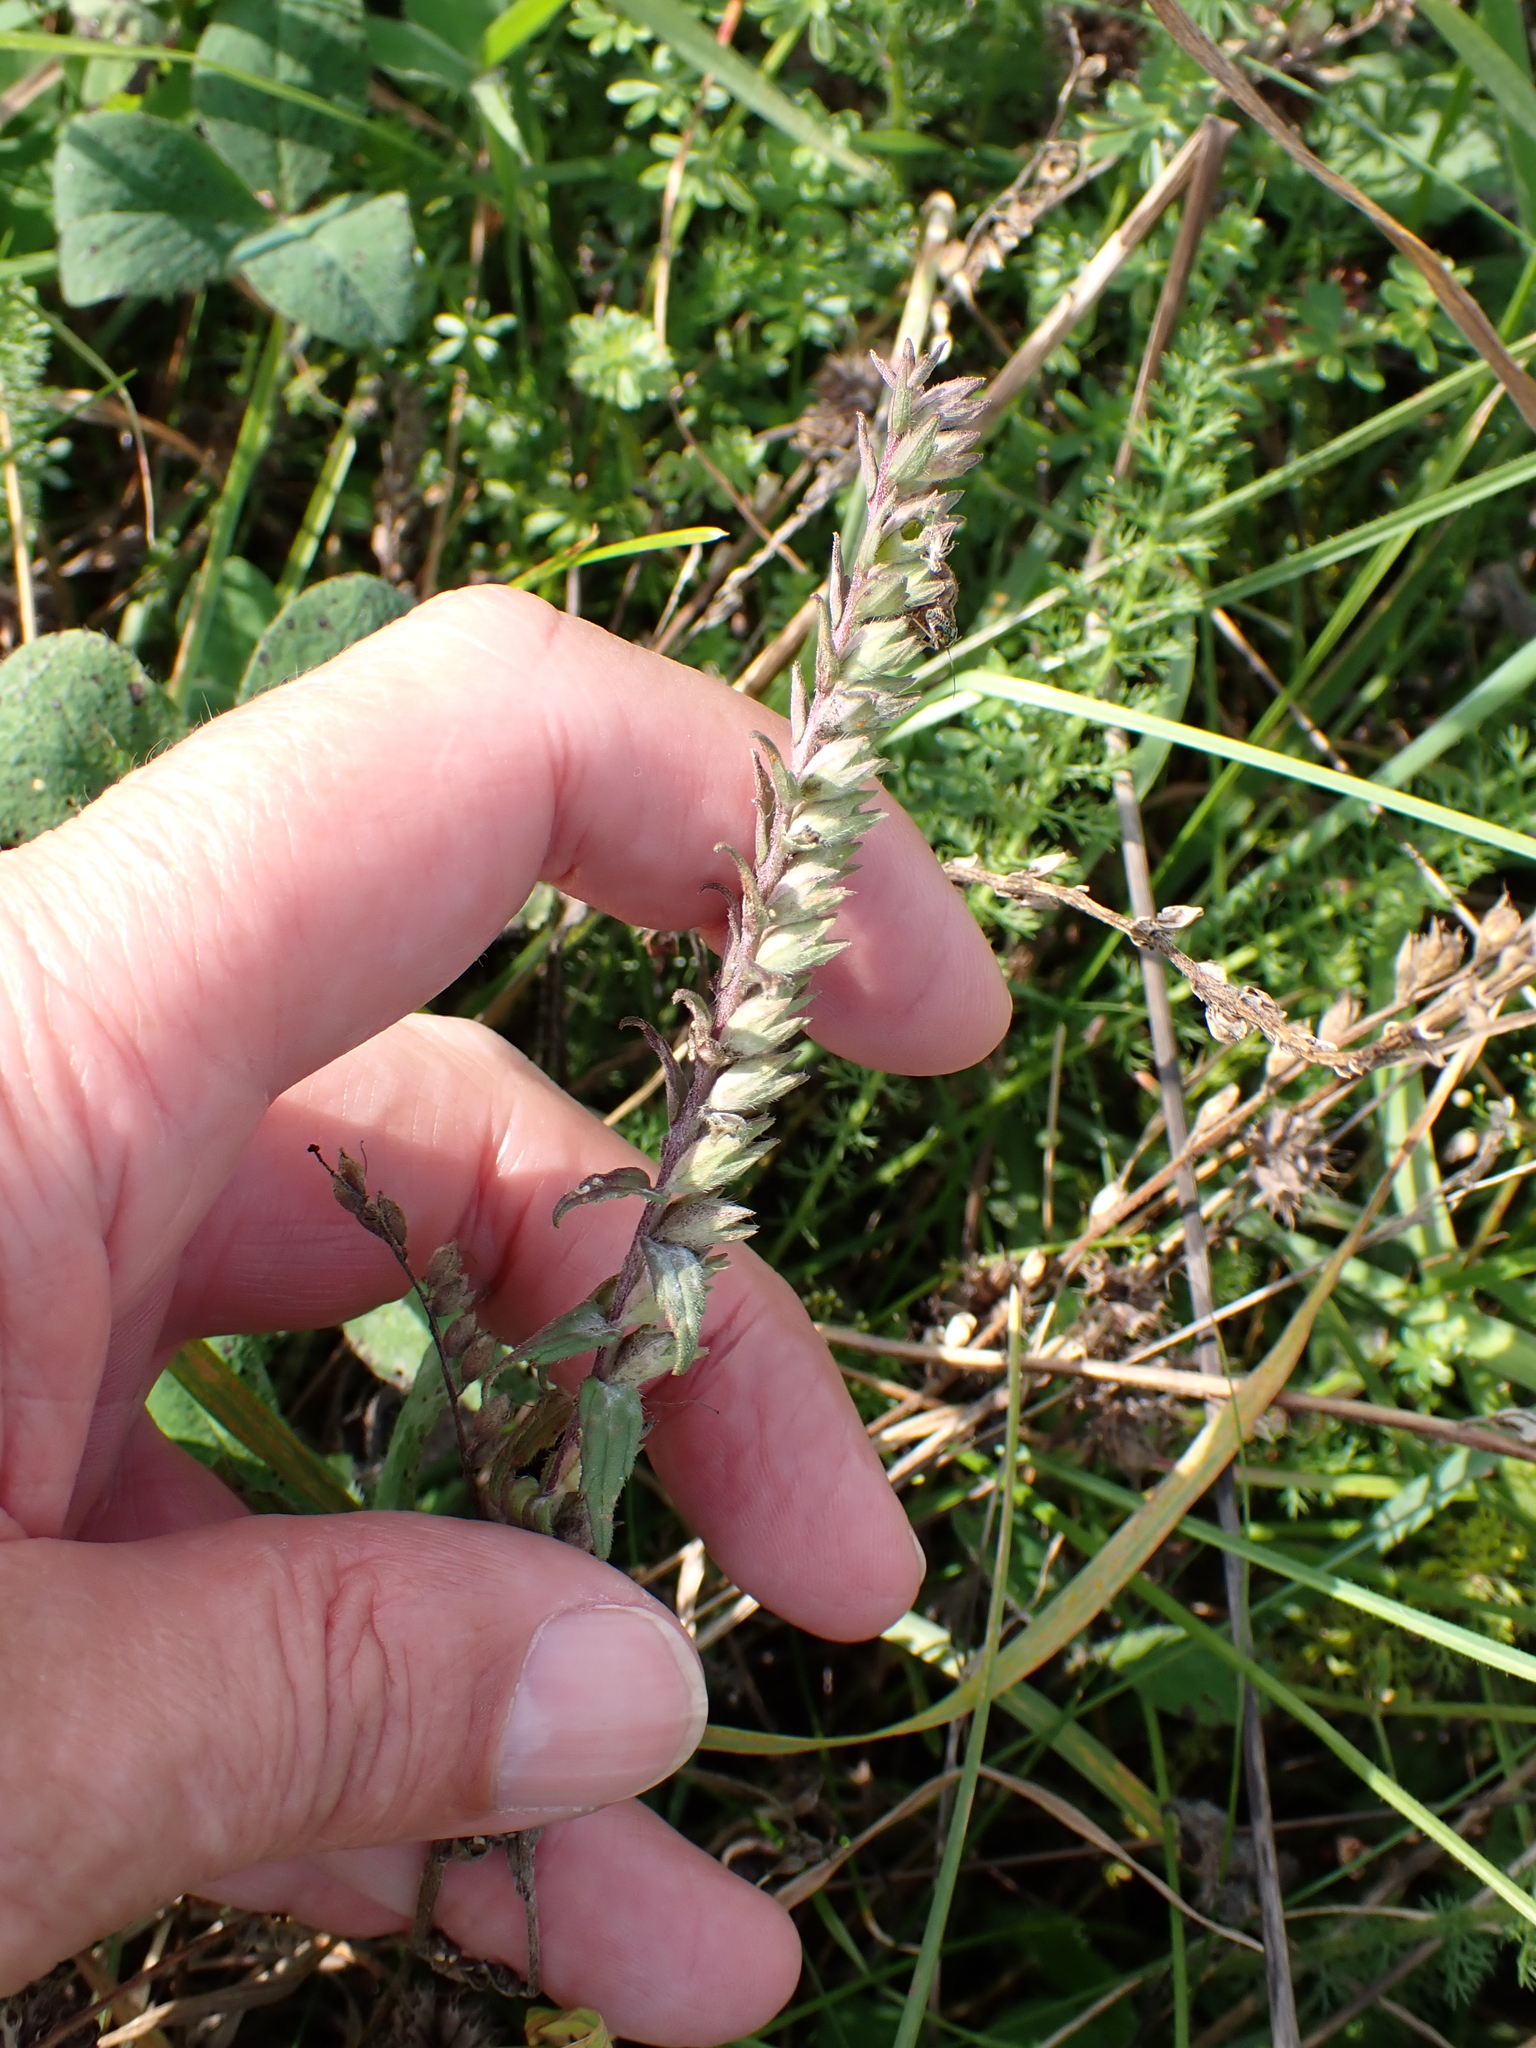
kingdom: Plantae
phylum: Tracheophyta
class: Magnoliopsida
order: Lamiales
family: Orobanchaceae
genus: Odontites
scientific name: Odontites vulgaris
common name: Broomrape
